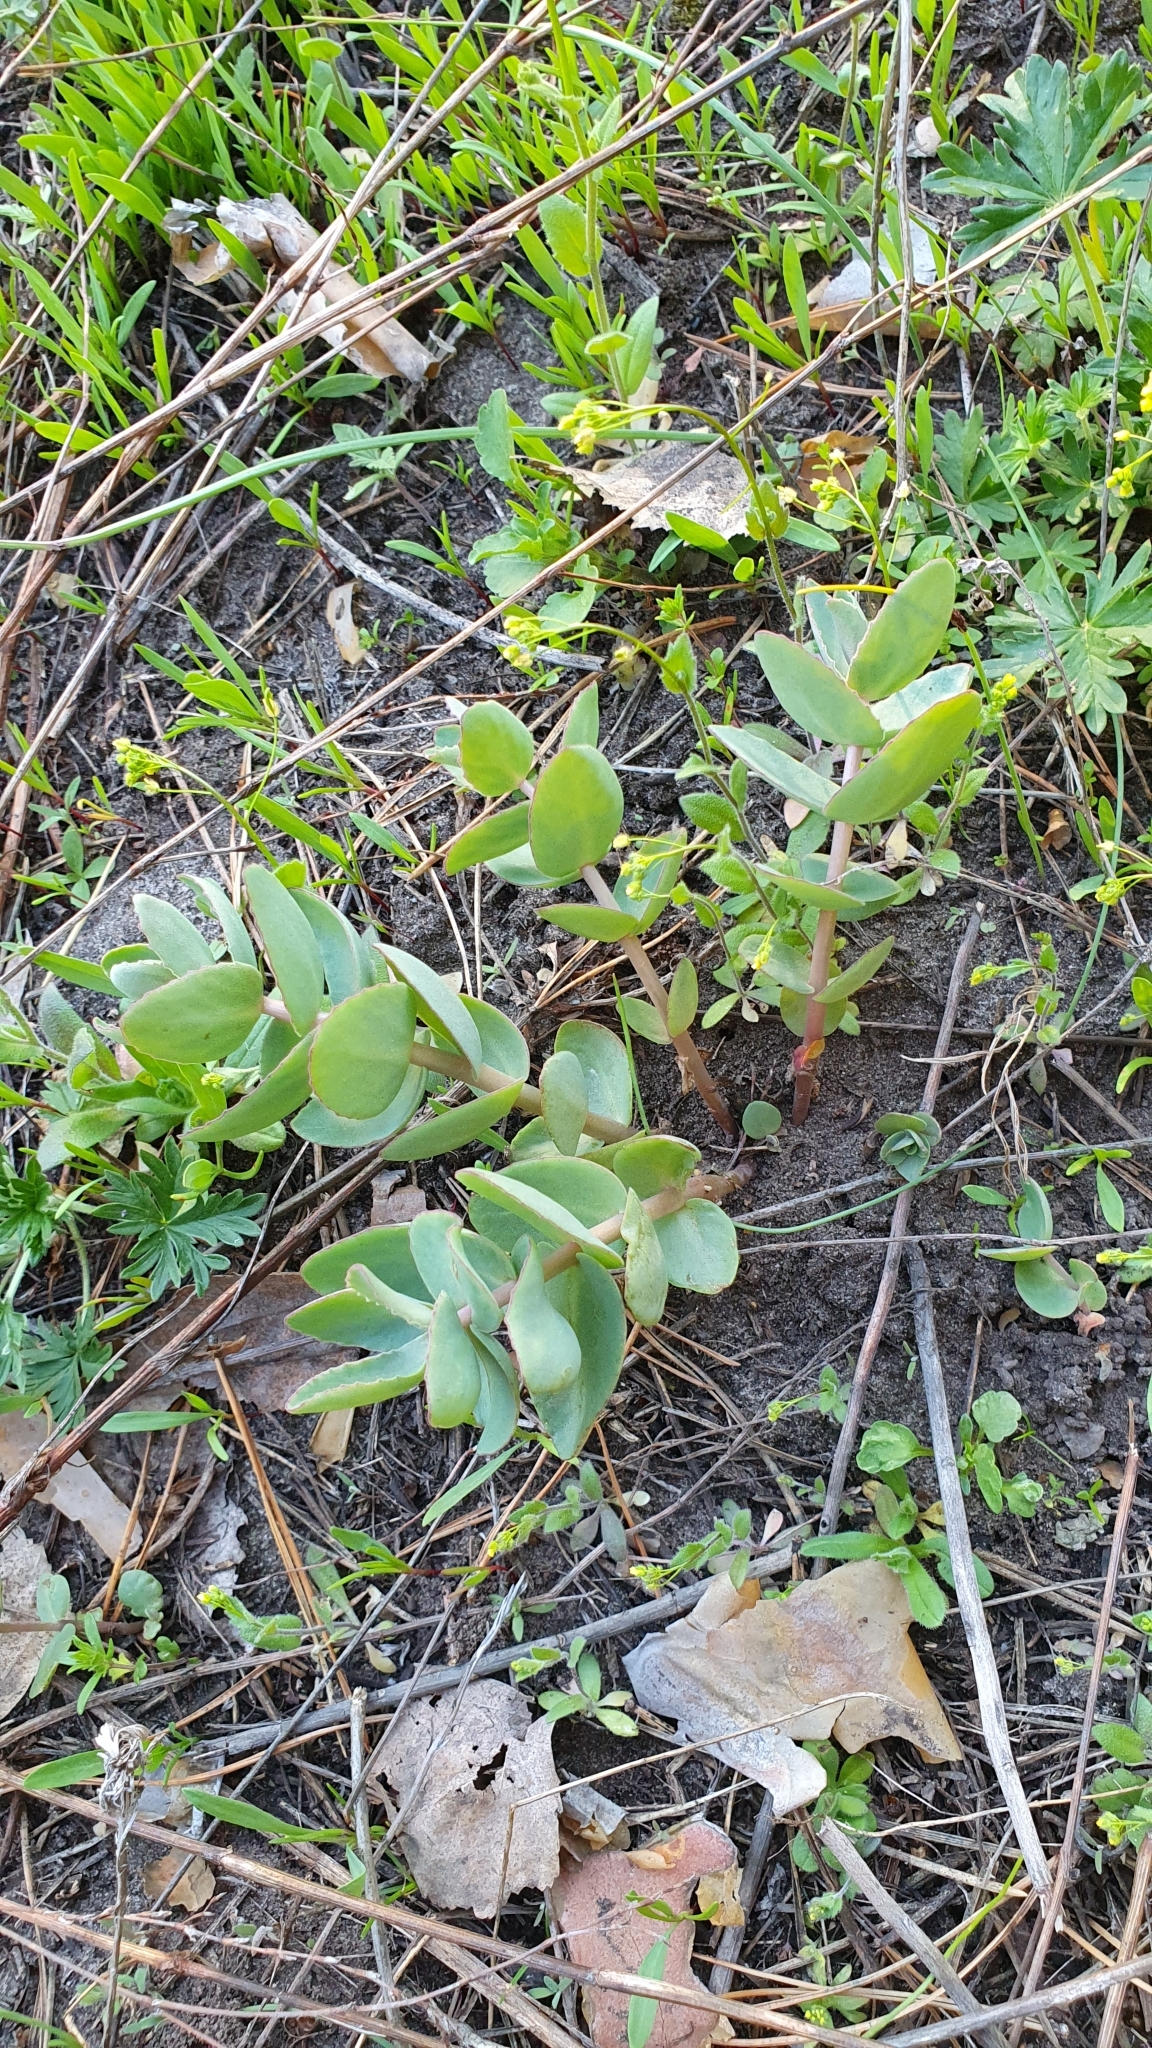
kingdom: Plantae
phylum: Tracheophyta
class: Magnoliopsida
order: Saxifragales
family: Crassulaceae
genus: Hylotelephium
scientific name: Hylotelephium maximum
